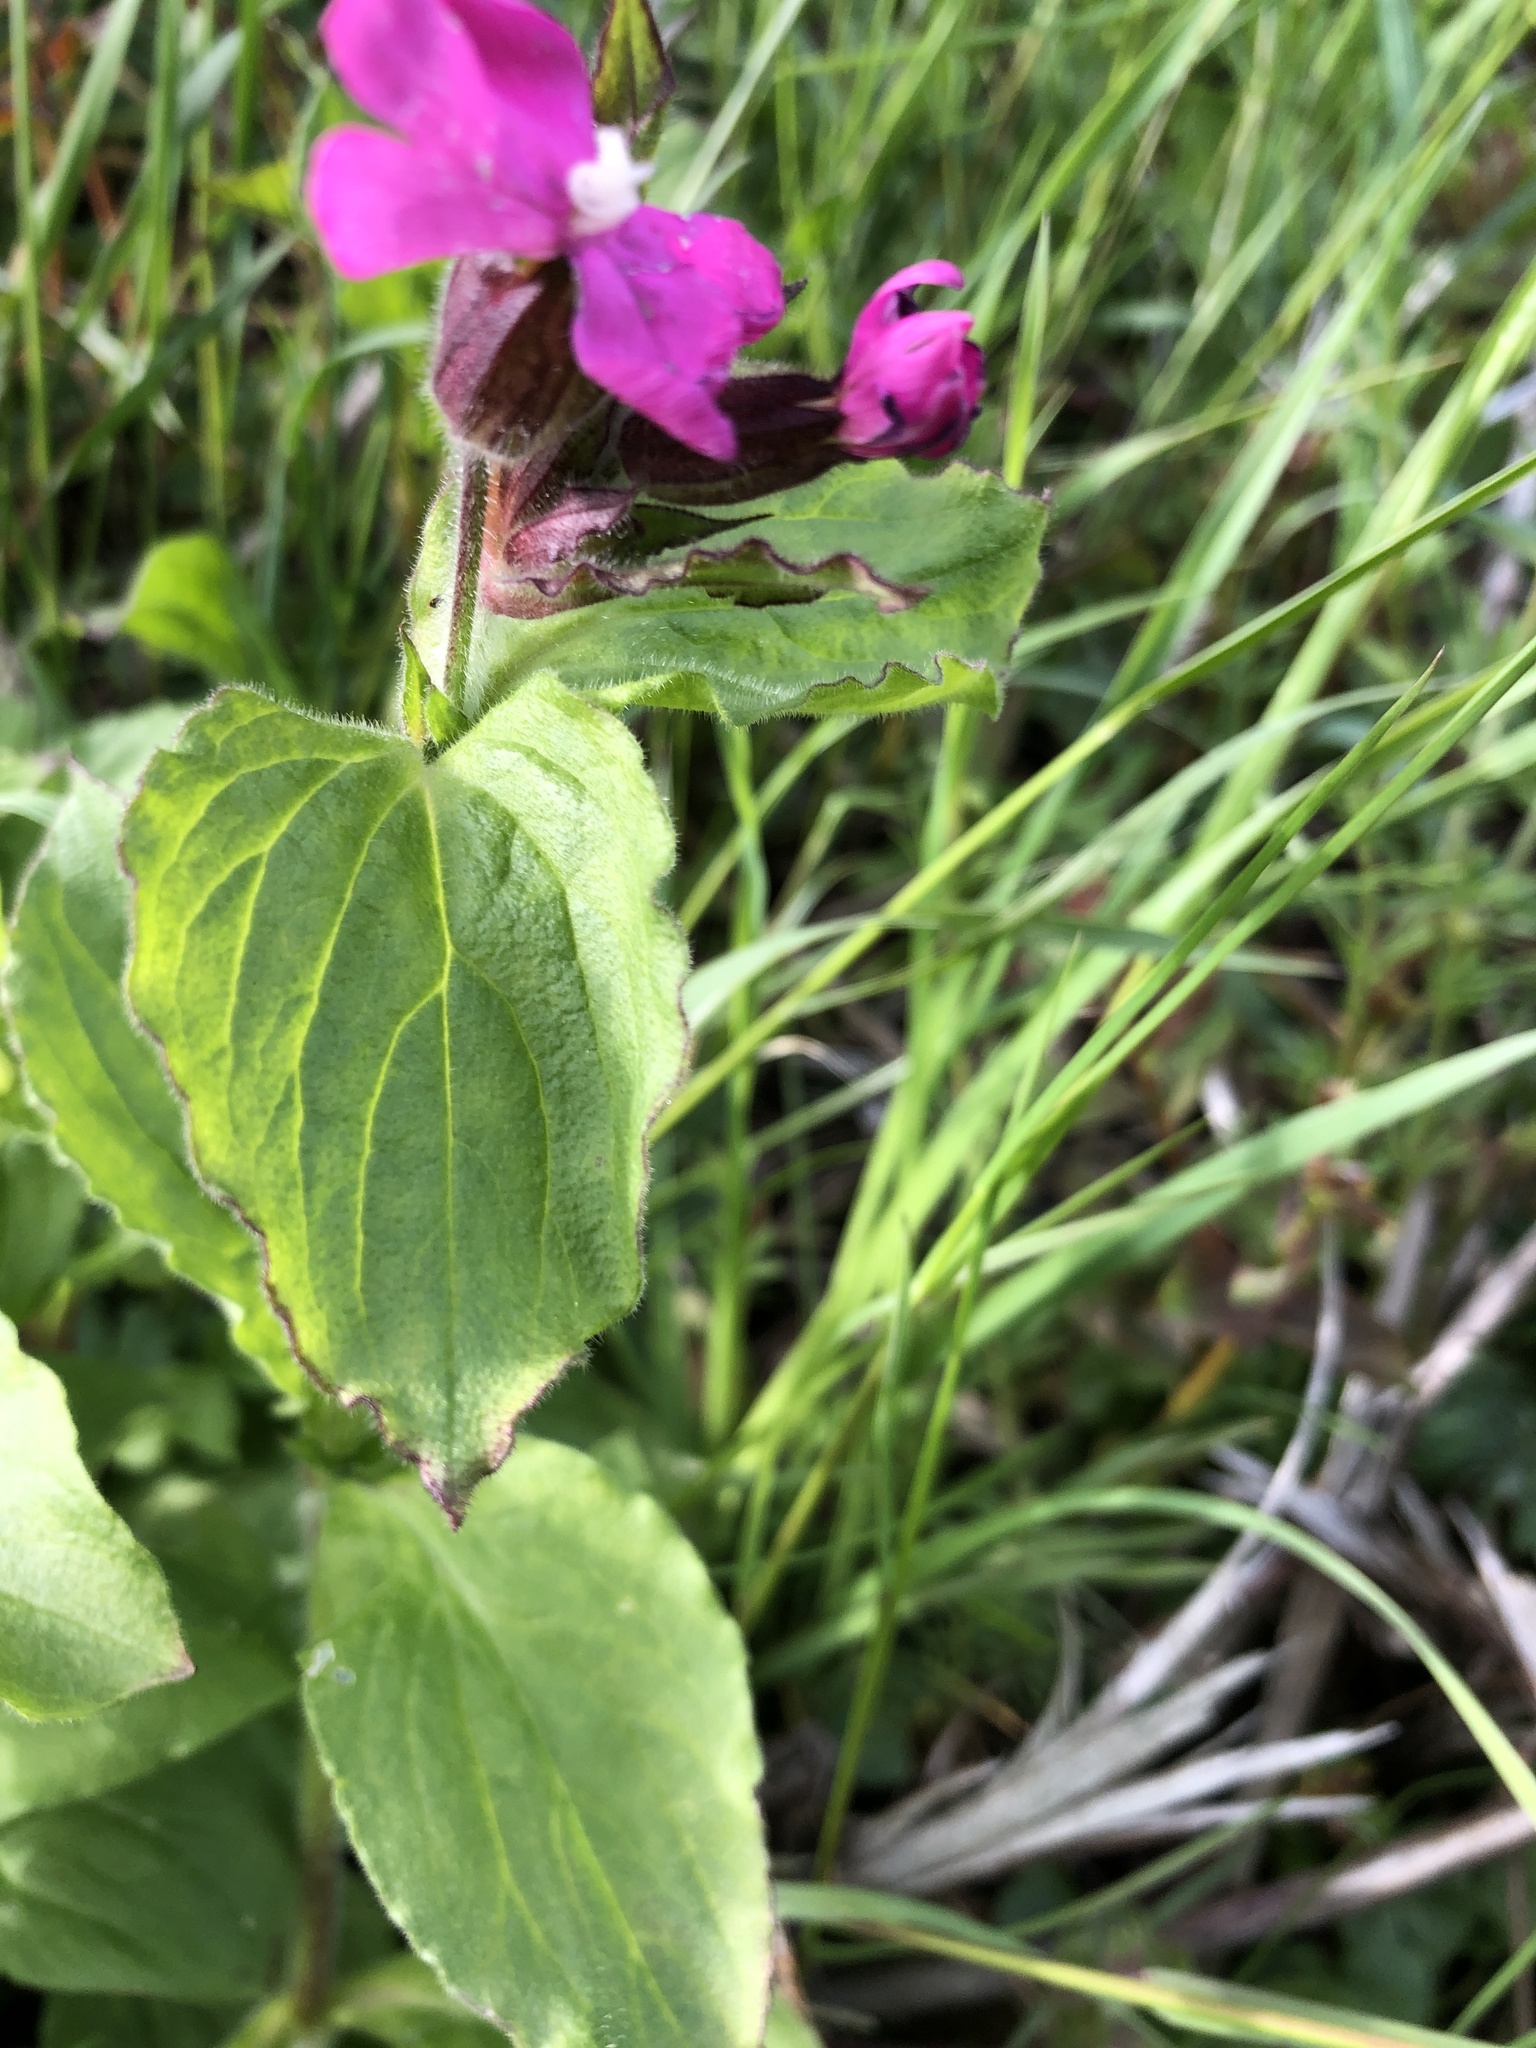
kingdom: Plantae
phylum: Tracheophyta
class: Magnoliopsida
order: Caryophyllales
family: Caryophyllaceae
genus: Silene
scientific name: Silene dioica
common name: Red campion
